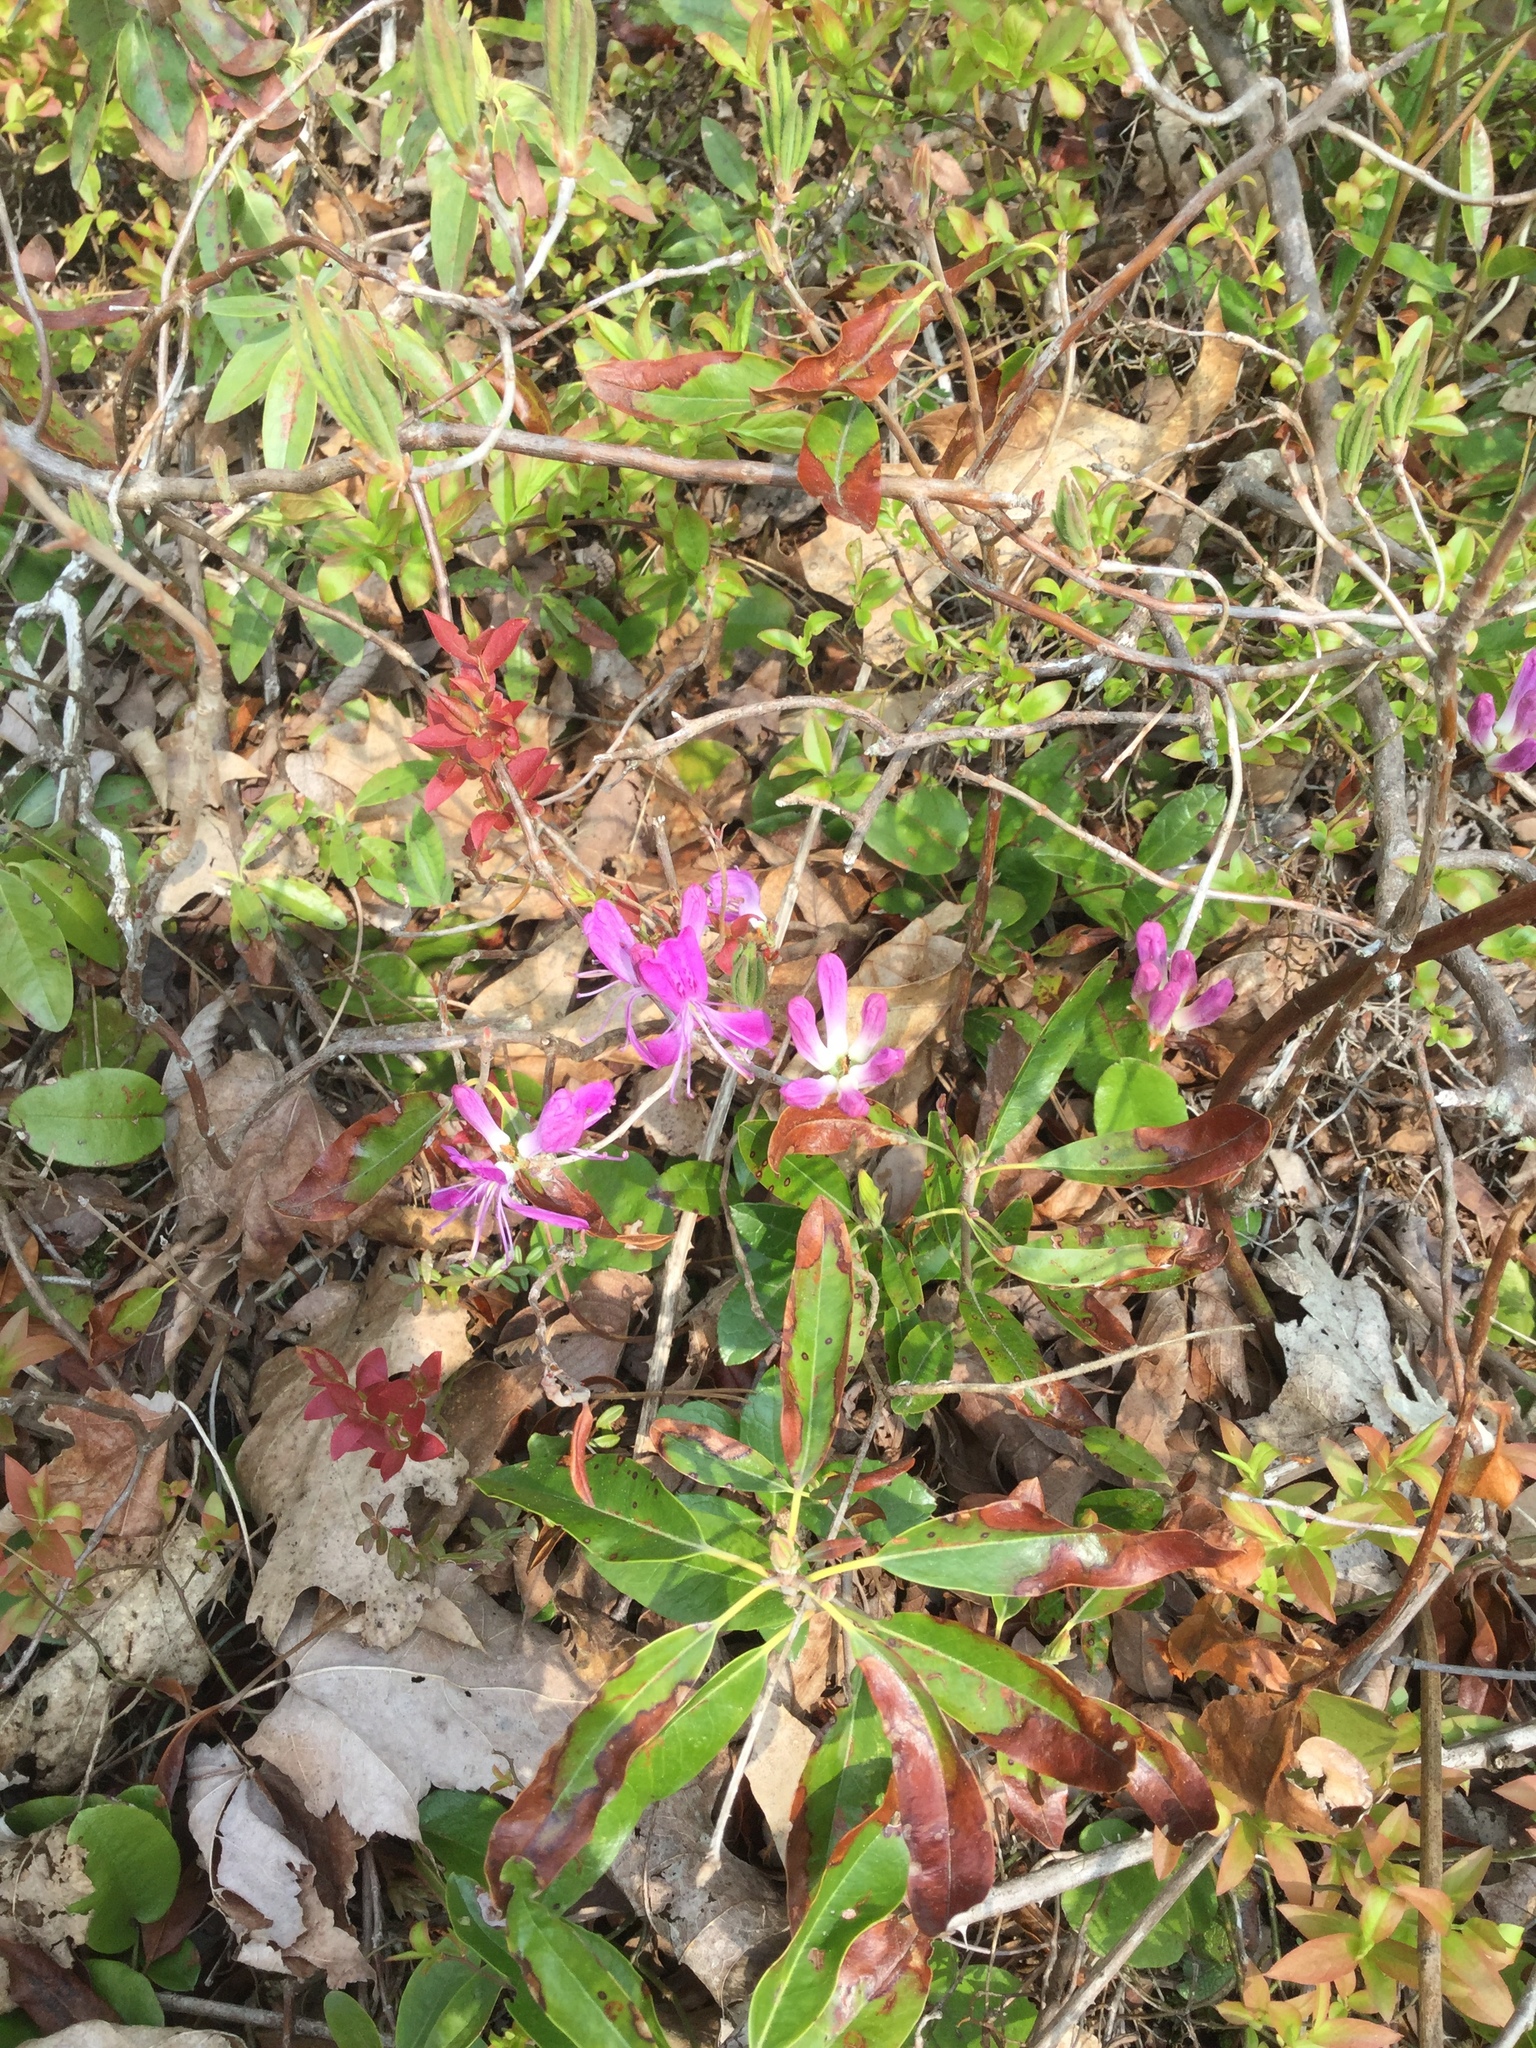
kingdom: Plantae
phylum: Tracheophyta
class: Magnoliopsida
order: Ericales
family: Ericaceae
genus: Rhododendron
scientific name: Rhododendron canadense
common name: Rhodora
